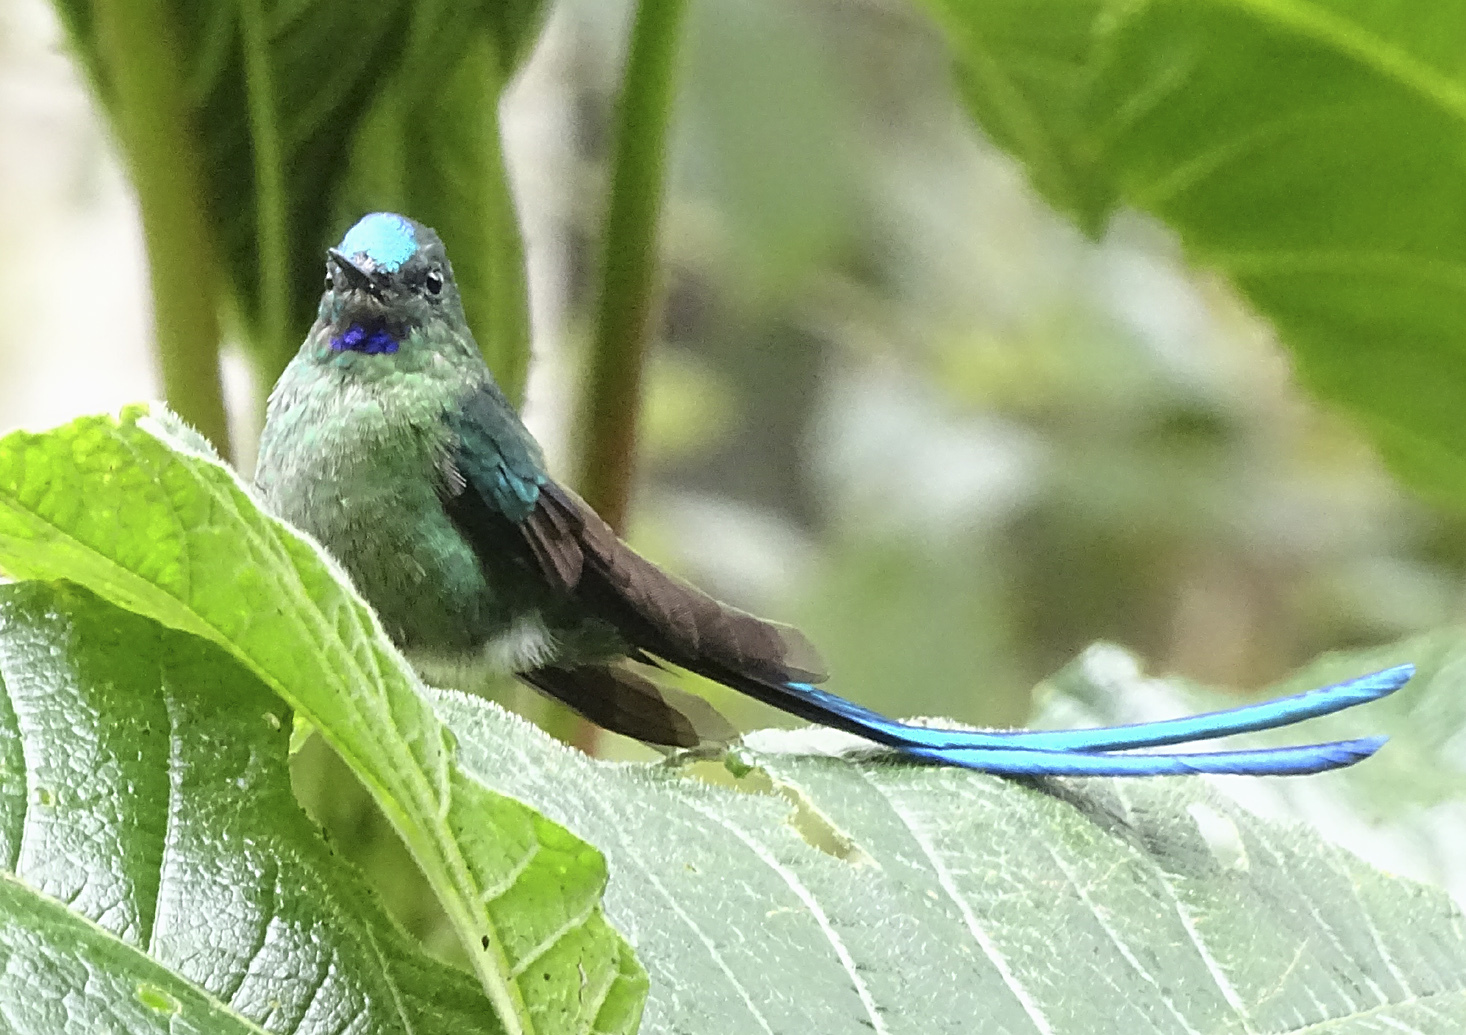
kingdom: Animalia
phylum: Chordata
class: Aves
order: Apodiformes
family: Trochilidae
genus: Aglaiocercus
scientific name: Aglaiocercus kingii
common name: Long-tailed sylph
